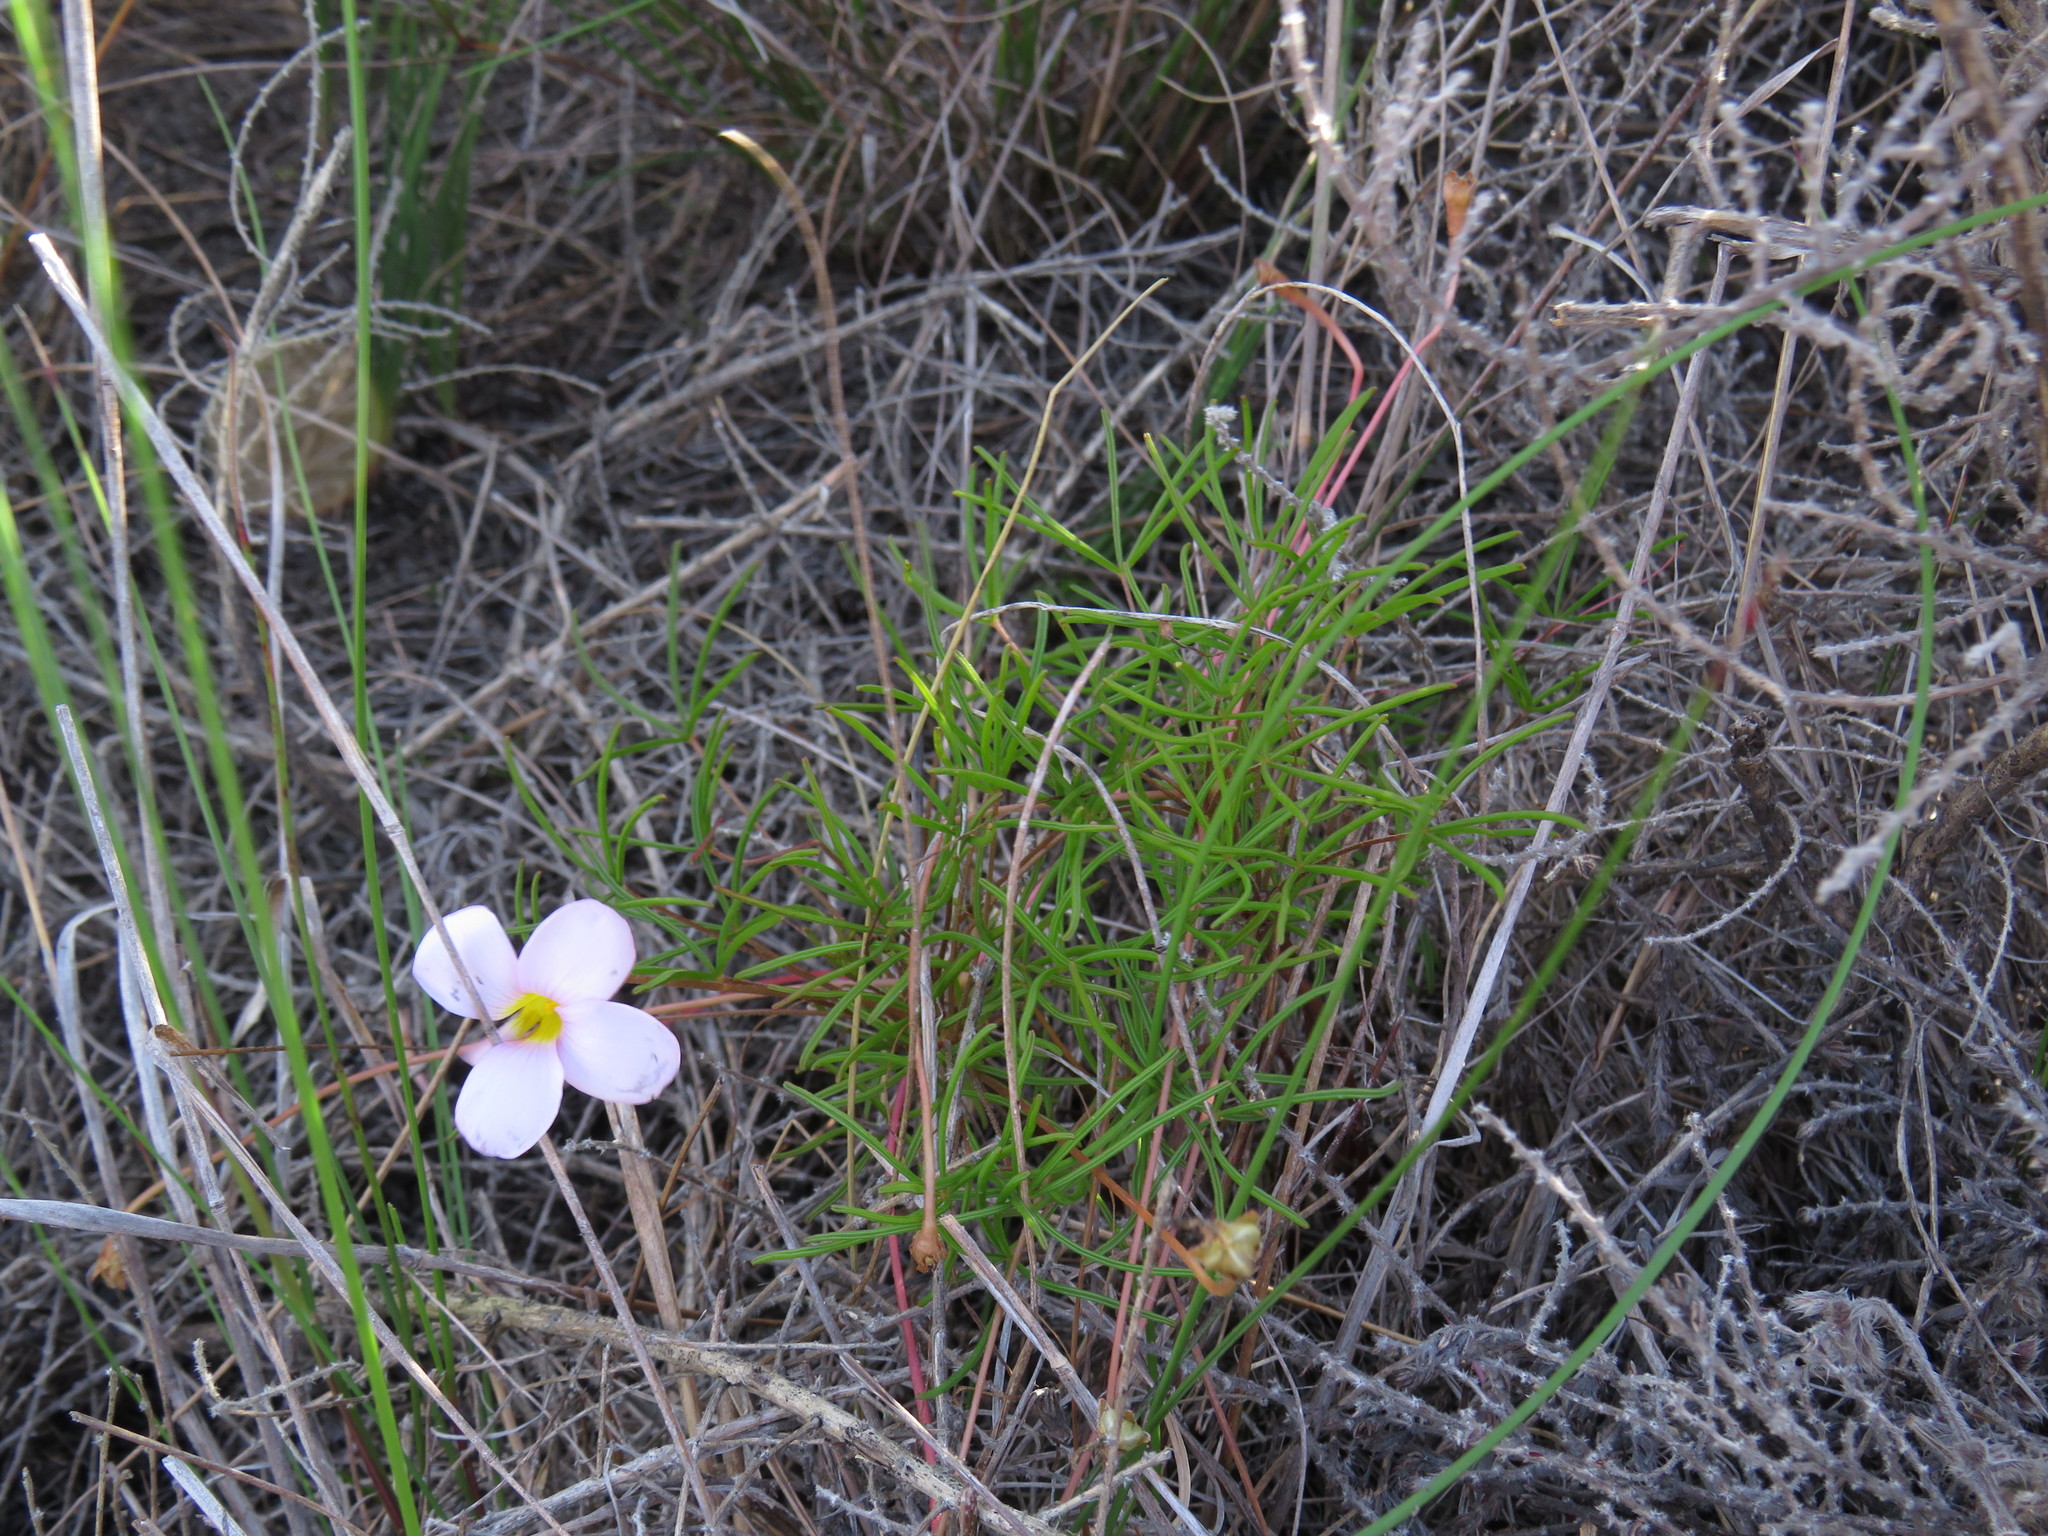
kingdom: Plantae
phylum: Tracheophyta
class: Magnoliopsida
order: Oxalidales
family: Oxalidaceae
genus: Oxalis
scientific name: Oxalis polyphylla
